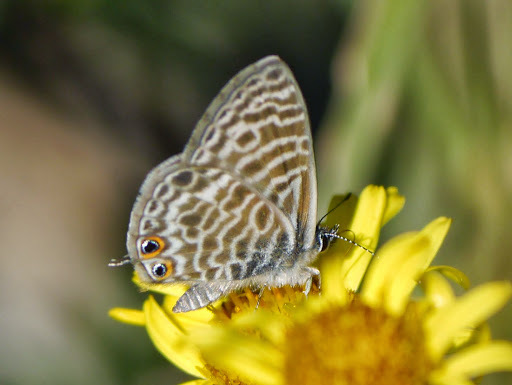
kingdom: Animalia
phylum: Arthropoda
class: Insecta
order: Lepidoptera
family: Lycaenidae
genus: Leptotes
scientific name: Leptotes pirithous
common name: Lang's short-tailed blue
